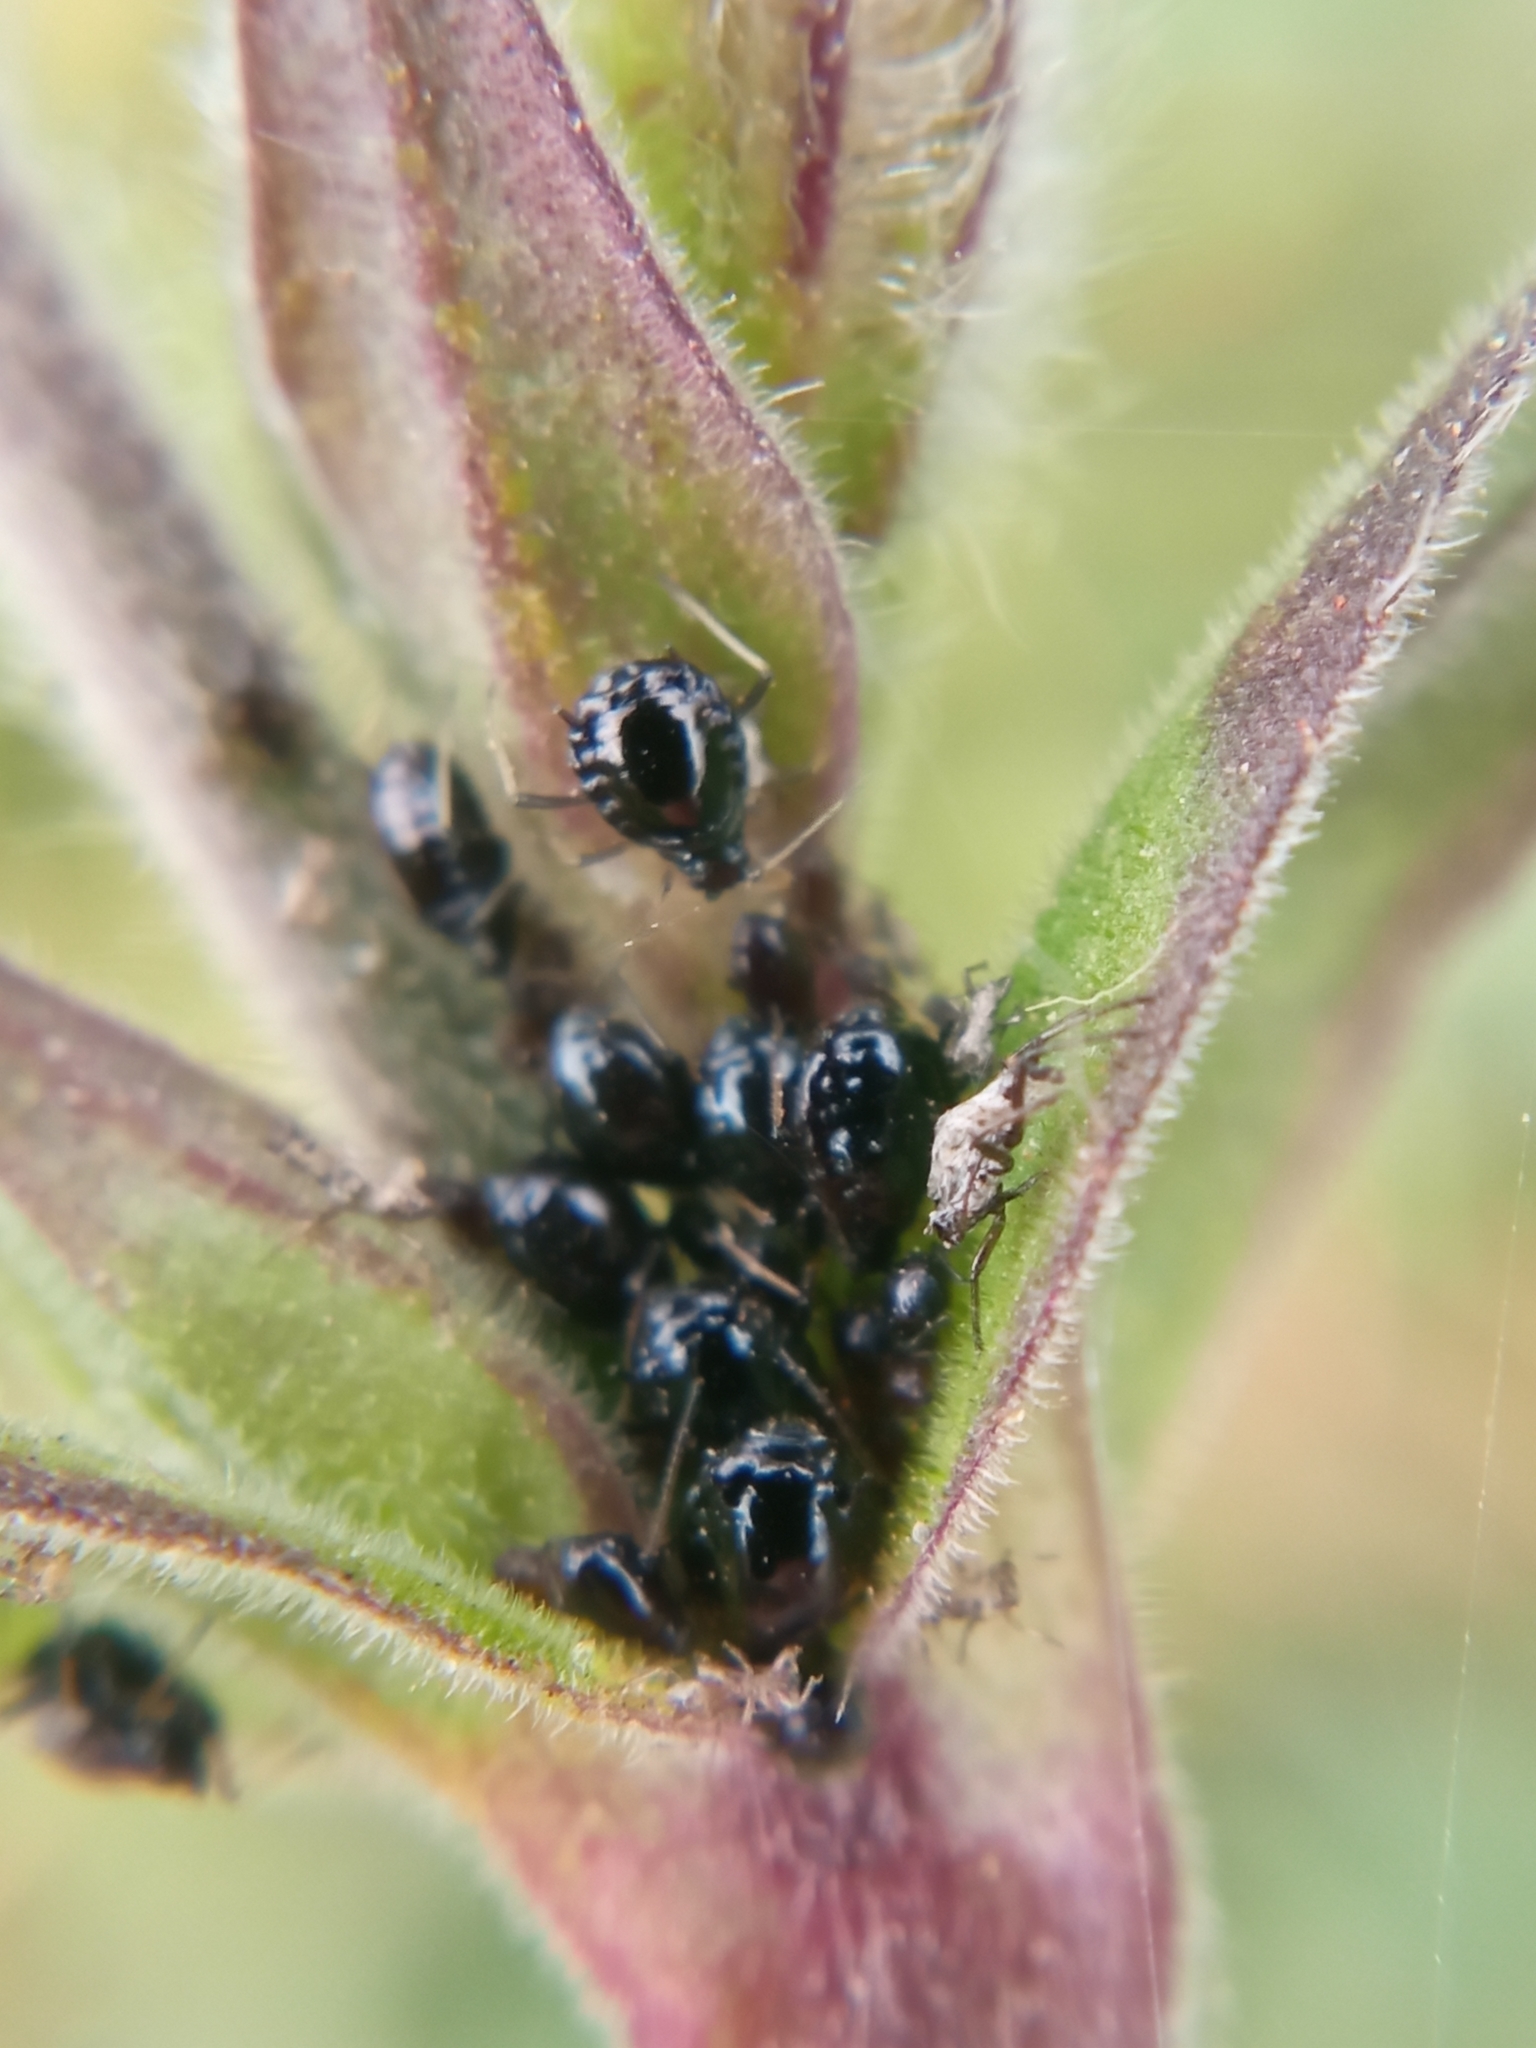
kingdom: Animalia
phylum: Arthropoda
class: Insecta
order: Hemiptera
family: Aphididae
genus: Aphis
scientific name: Aphis cucubali
